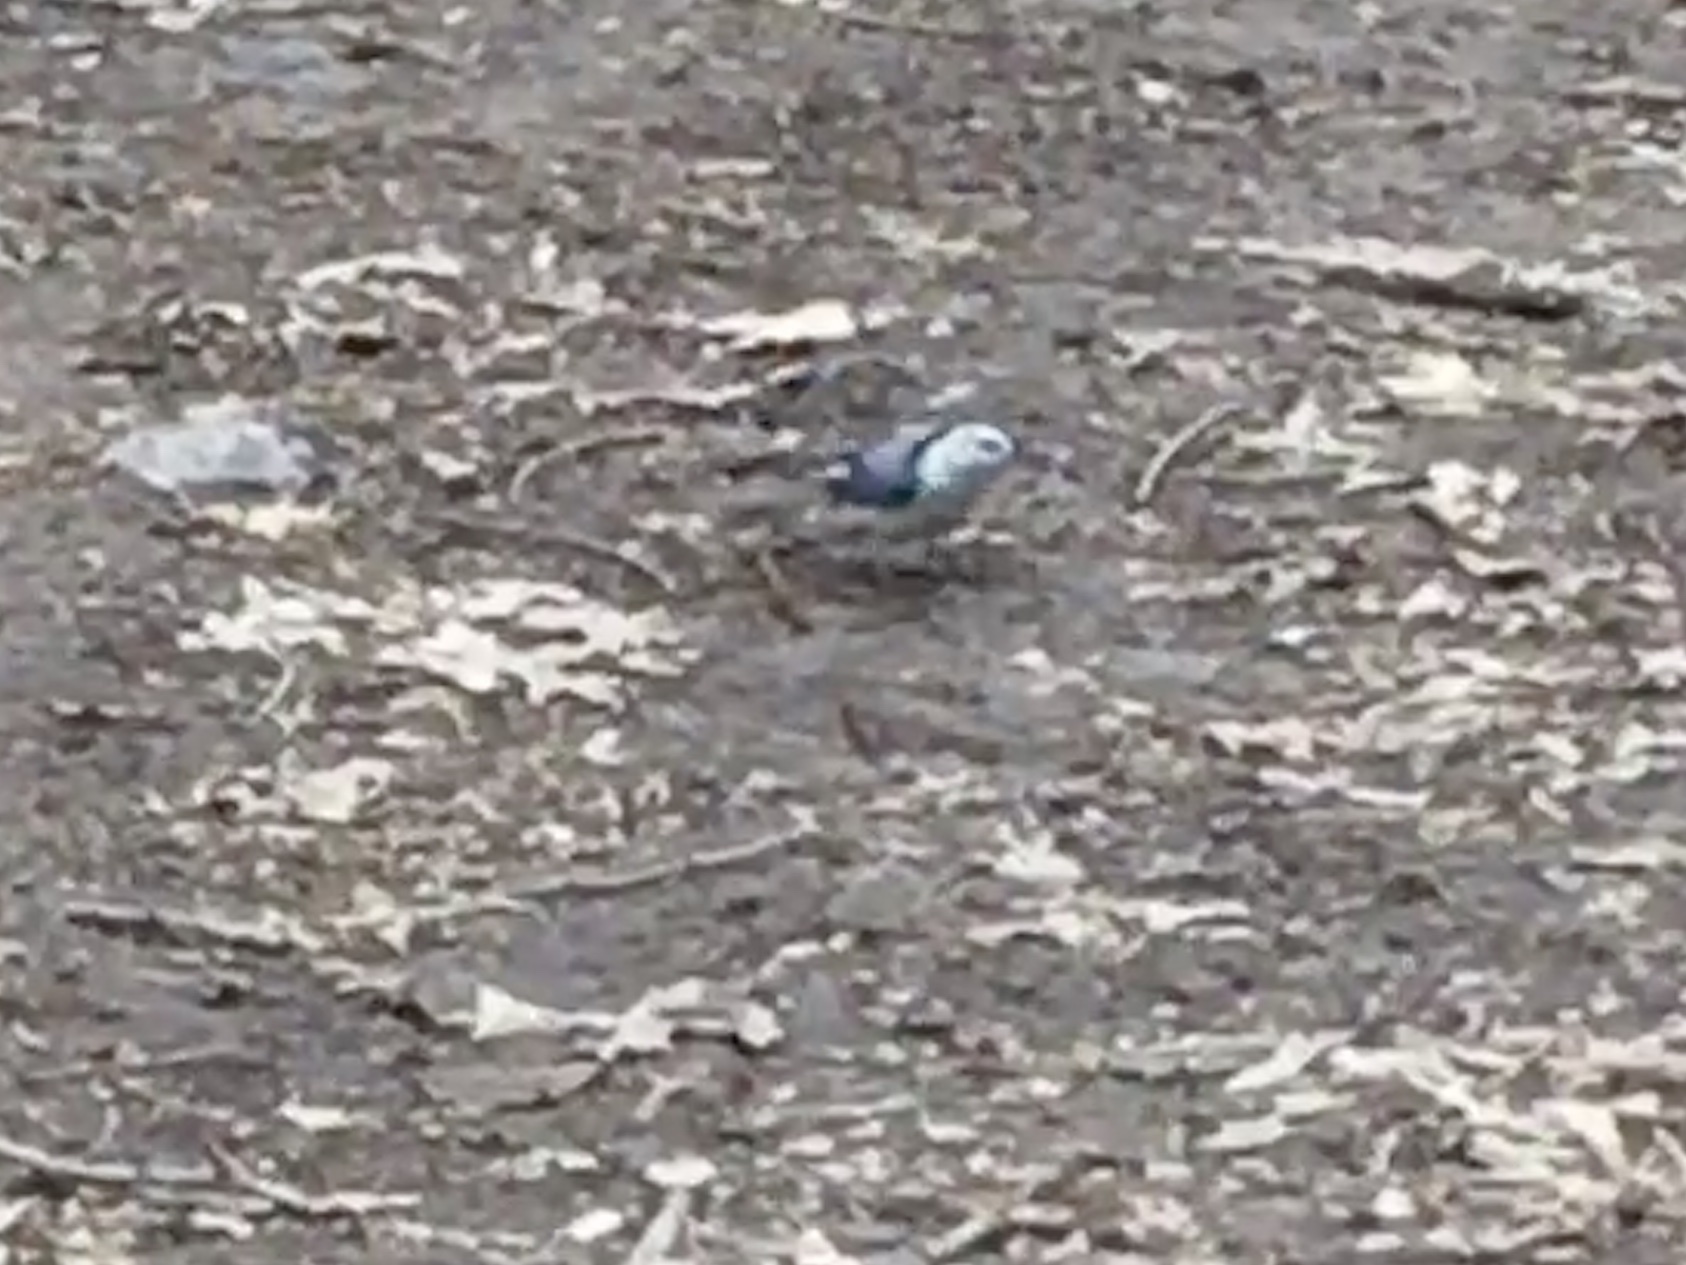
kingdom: Animalia
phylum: Chordata
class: Aves
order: Passeriformes
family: Sittidae
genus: Sitta
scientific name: Sitta carolinensis
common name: White-breasted nuthatch
